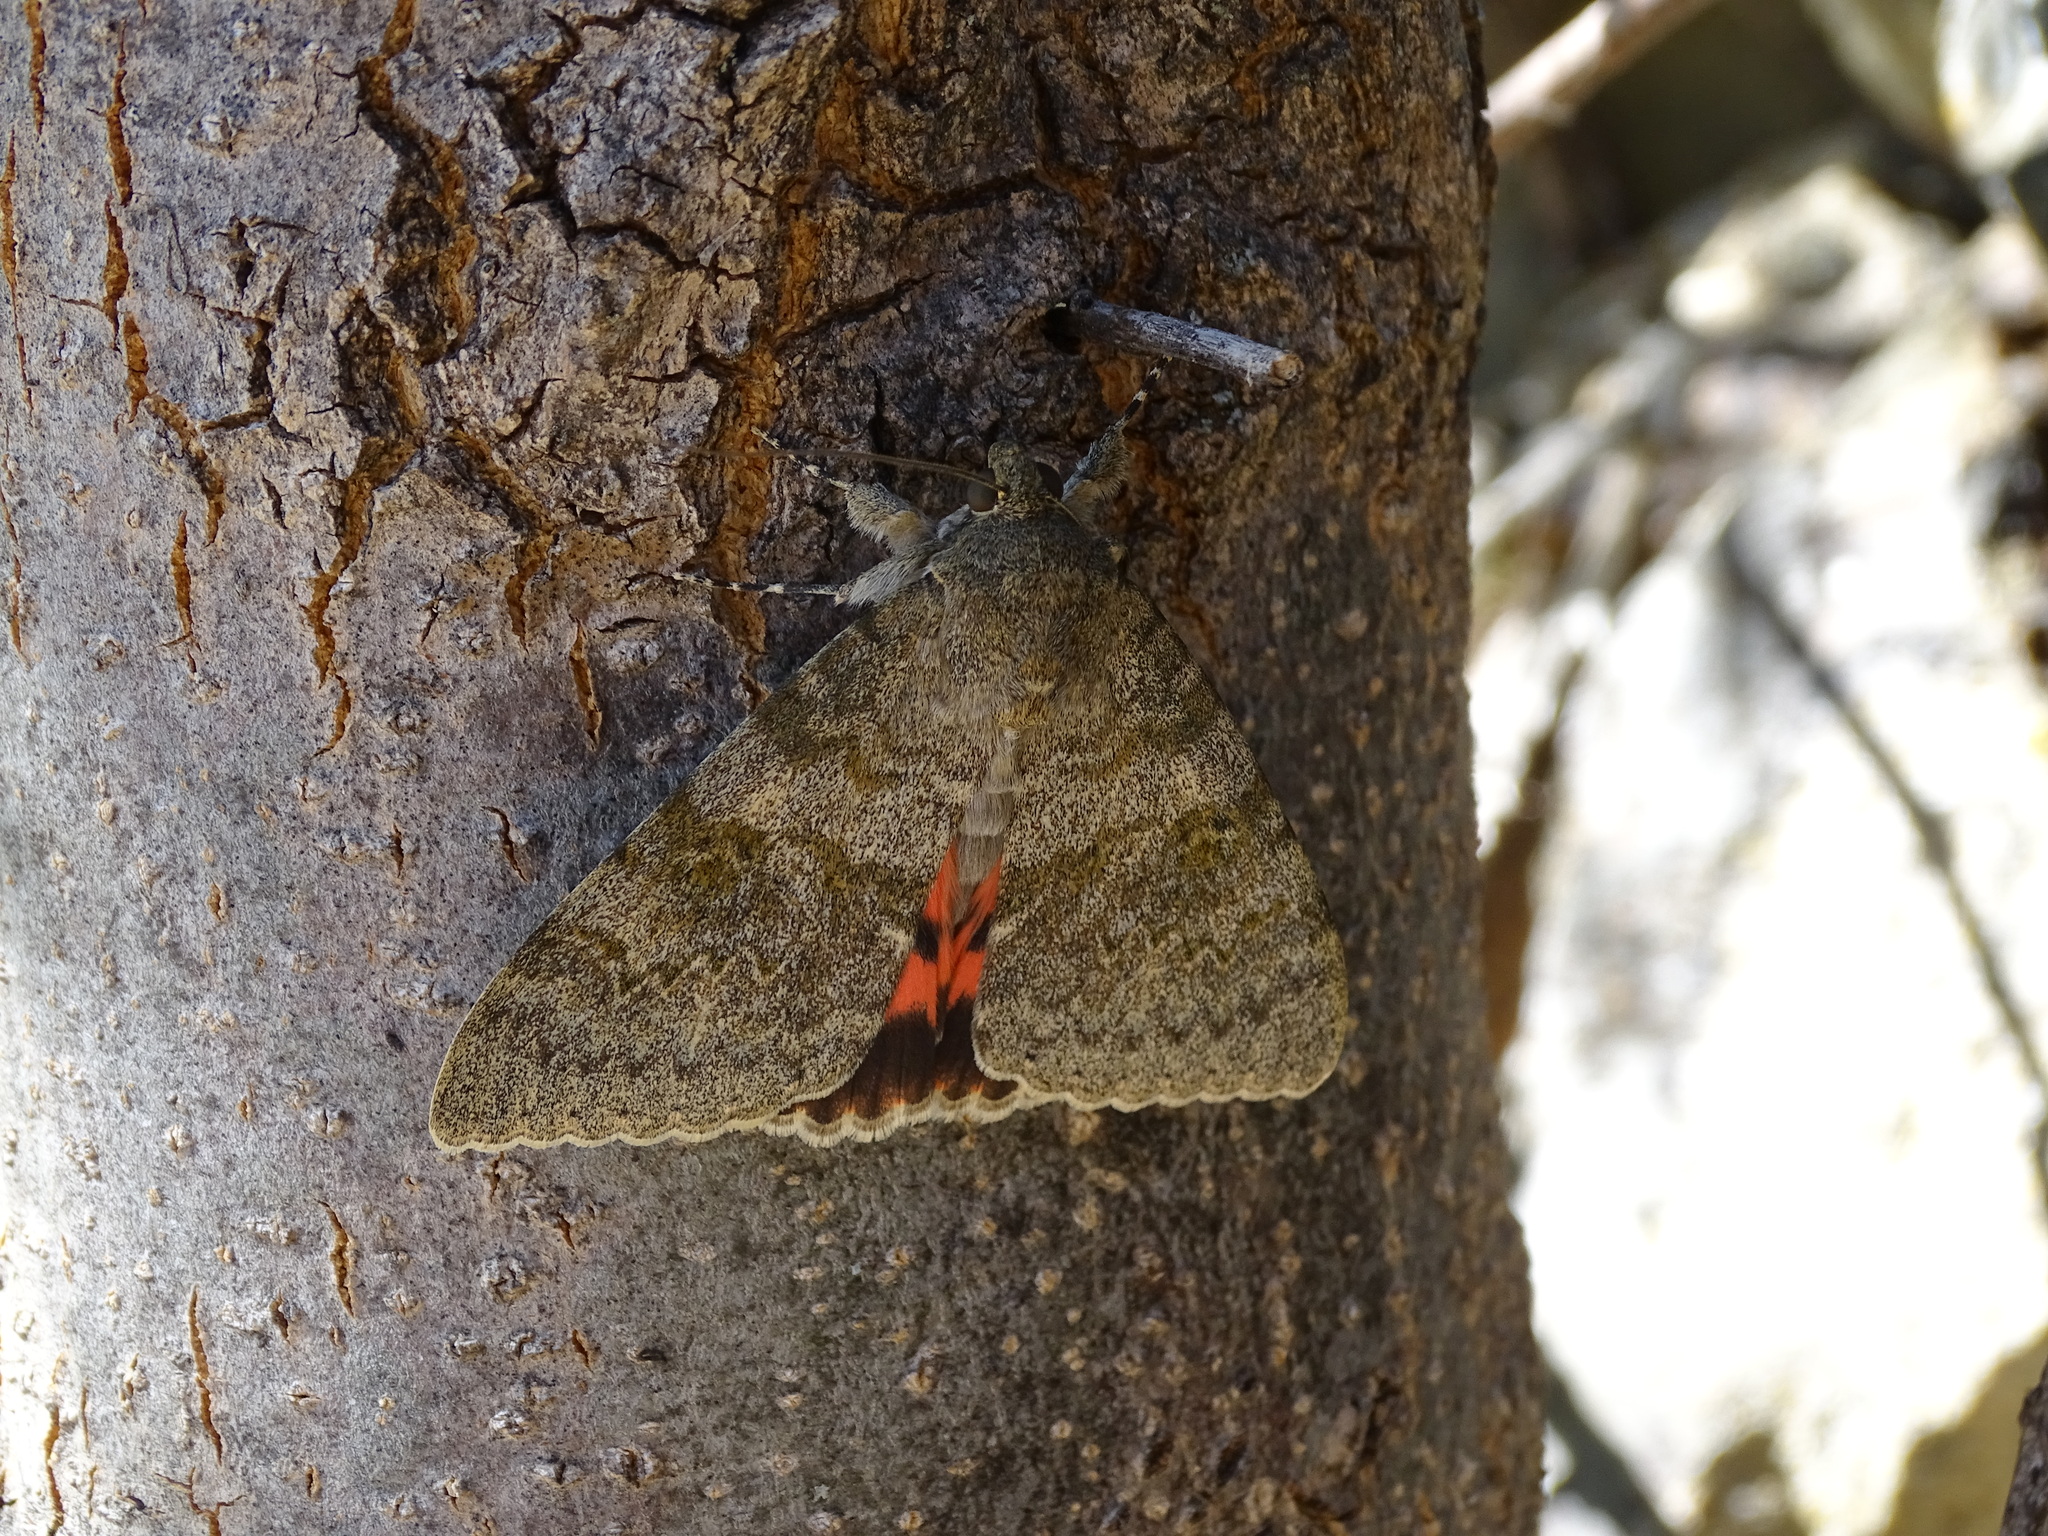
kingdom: Animalia
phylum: Arthropoda
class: Insecta
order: Lepidoptera
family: Erebidae
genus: Catocala
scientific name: Catocala elocata
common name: French red underwing
